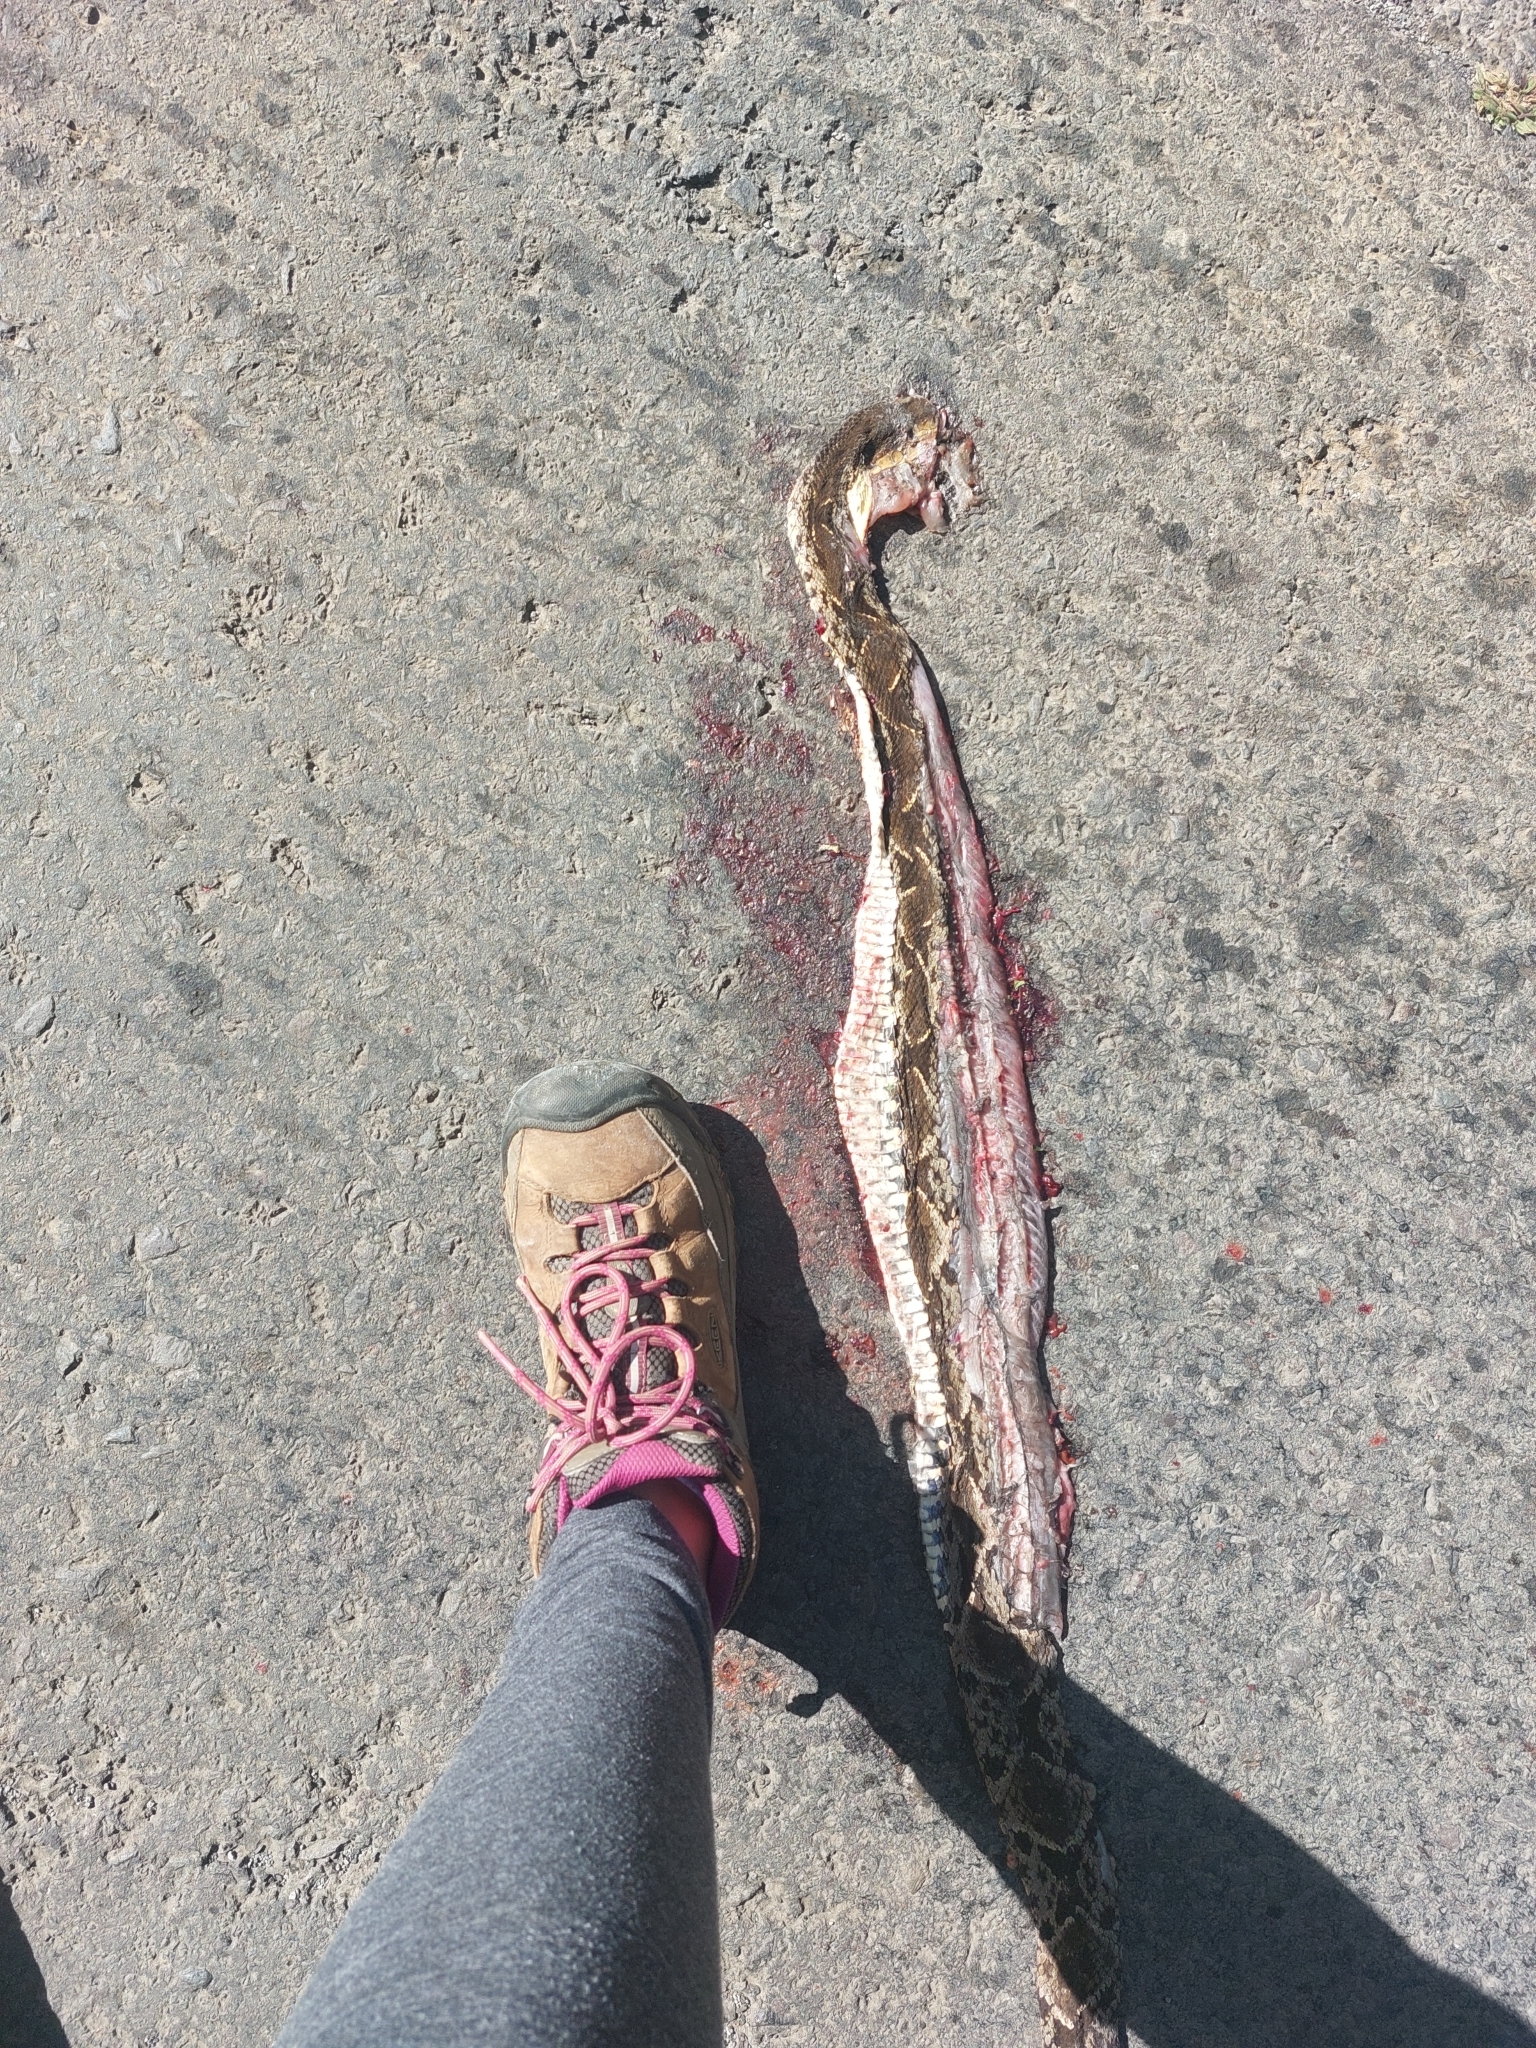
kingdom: Animalia
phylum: Chordata
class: Squamata
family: Viperidae
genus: Bothrops
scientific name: Bothrops asper
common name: Terciopelo
